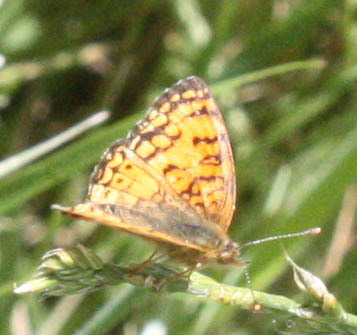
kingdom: Animalia
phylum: Arthropoda
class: Insecta
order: Lepidoptera
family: Nymphalidae
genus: Eresia
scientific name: Eresia aveyrona
